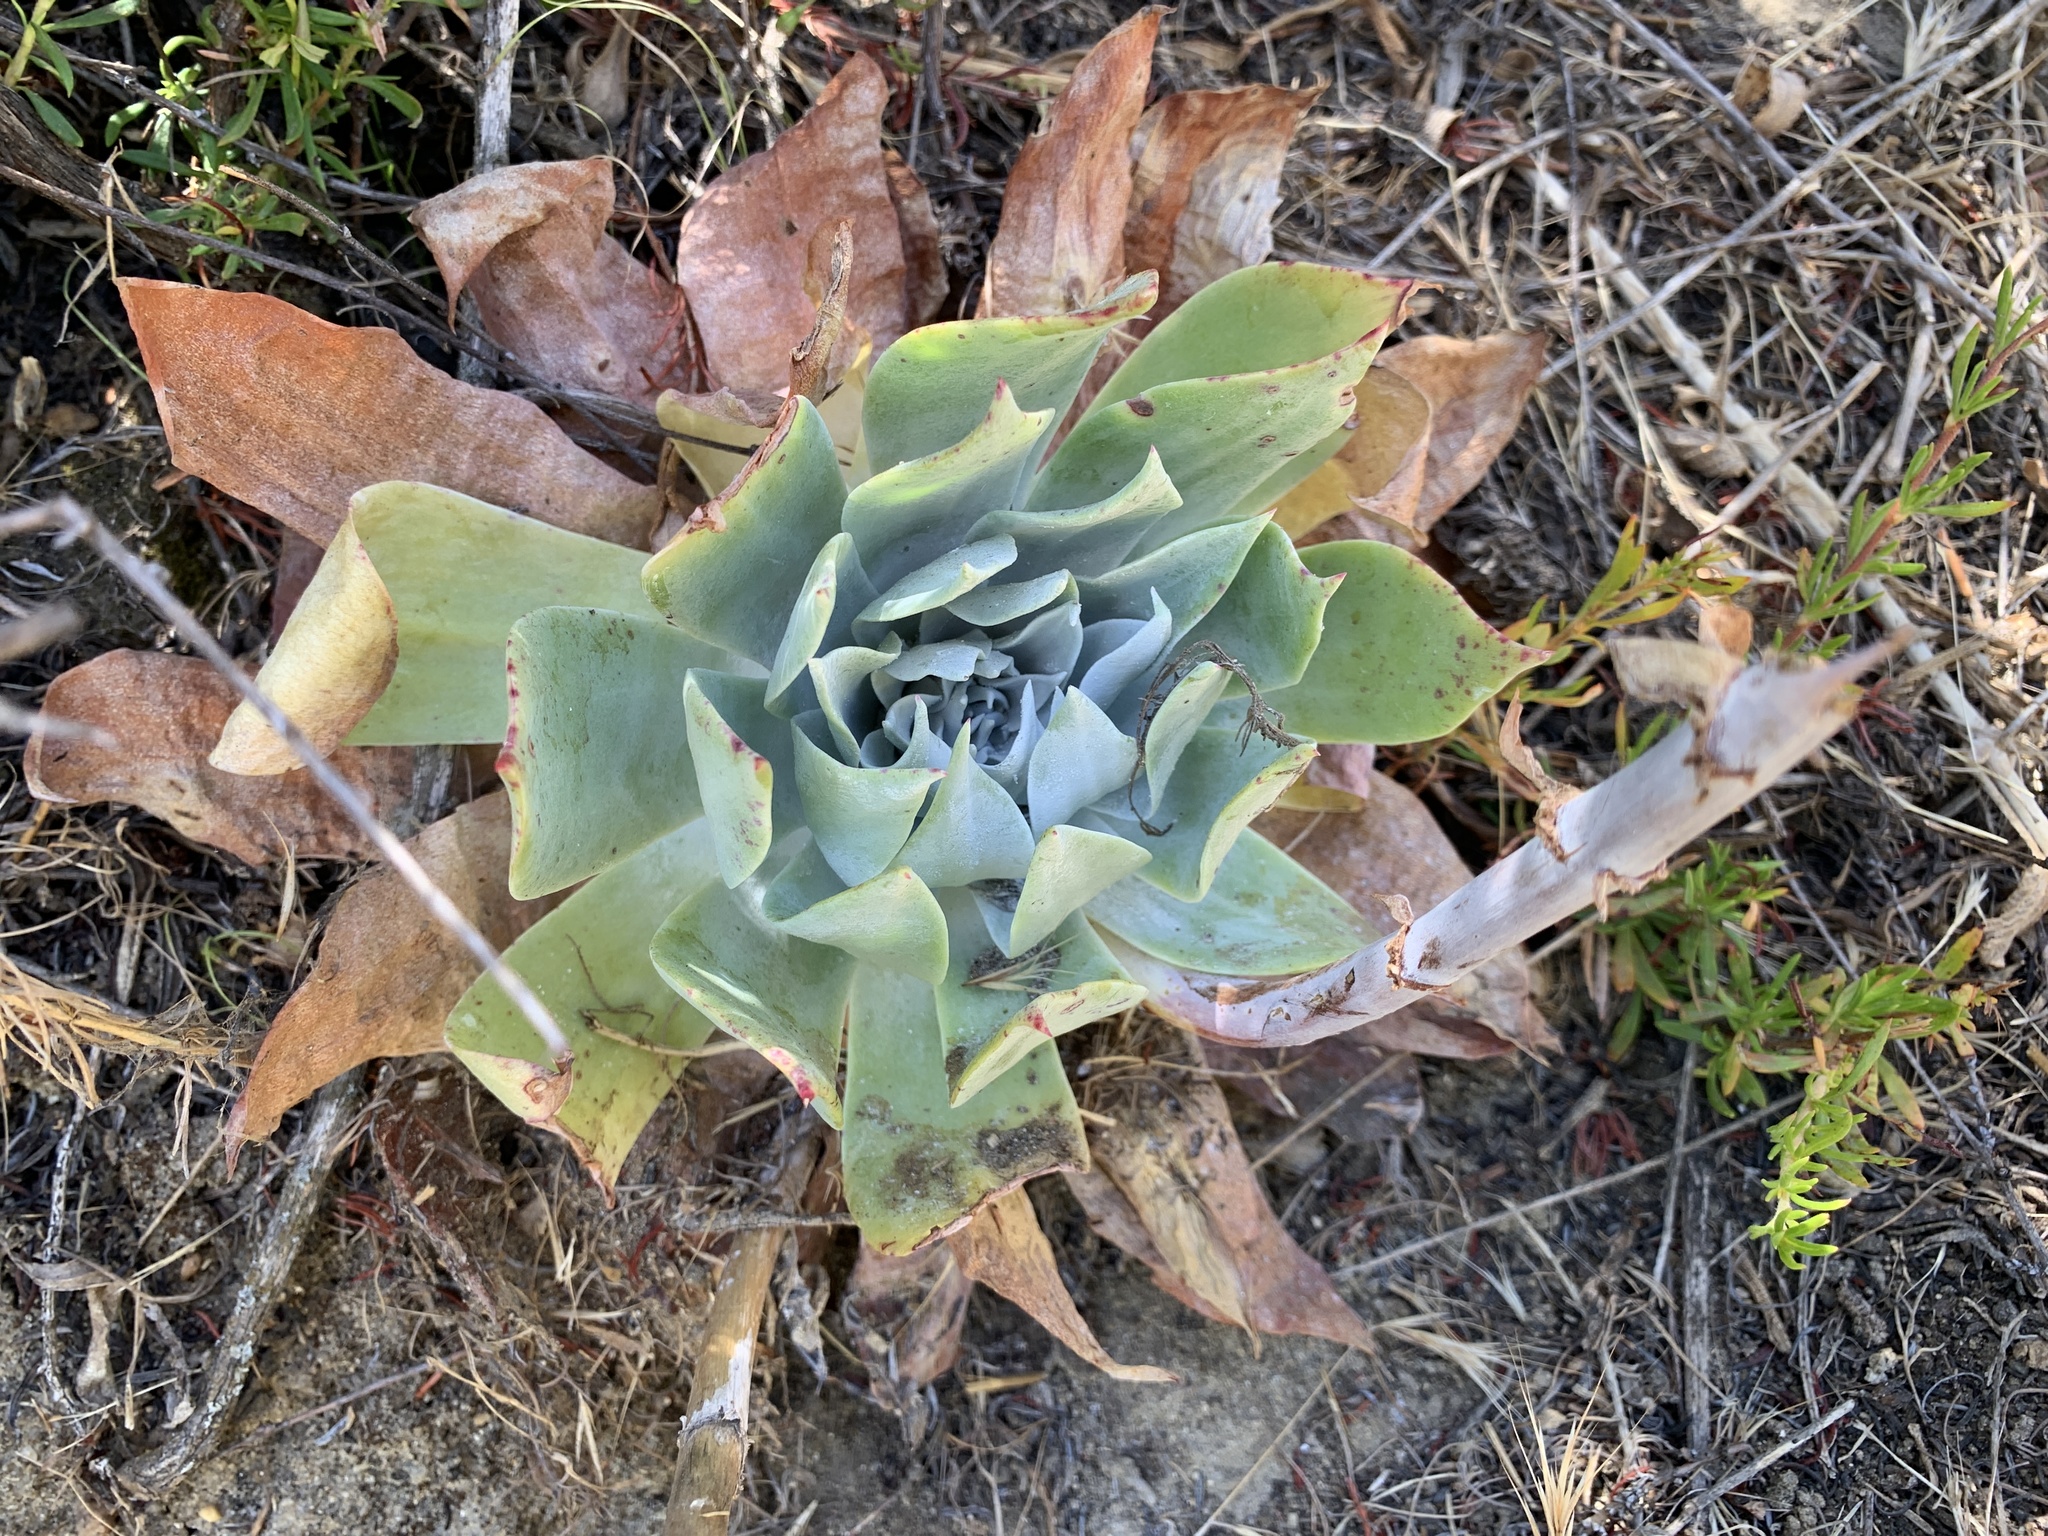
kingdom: Plantae
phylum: Tracheophyta
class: Magnoliopsida
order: Saxifragales
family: Crassulaceae
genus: Dudleya
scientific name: Dudleya pulverulenta
